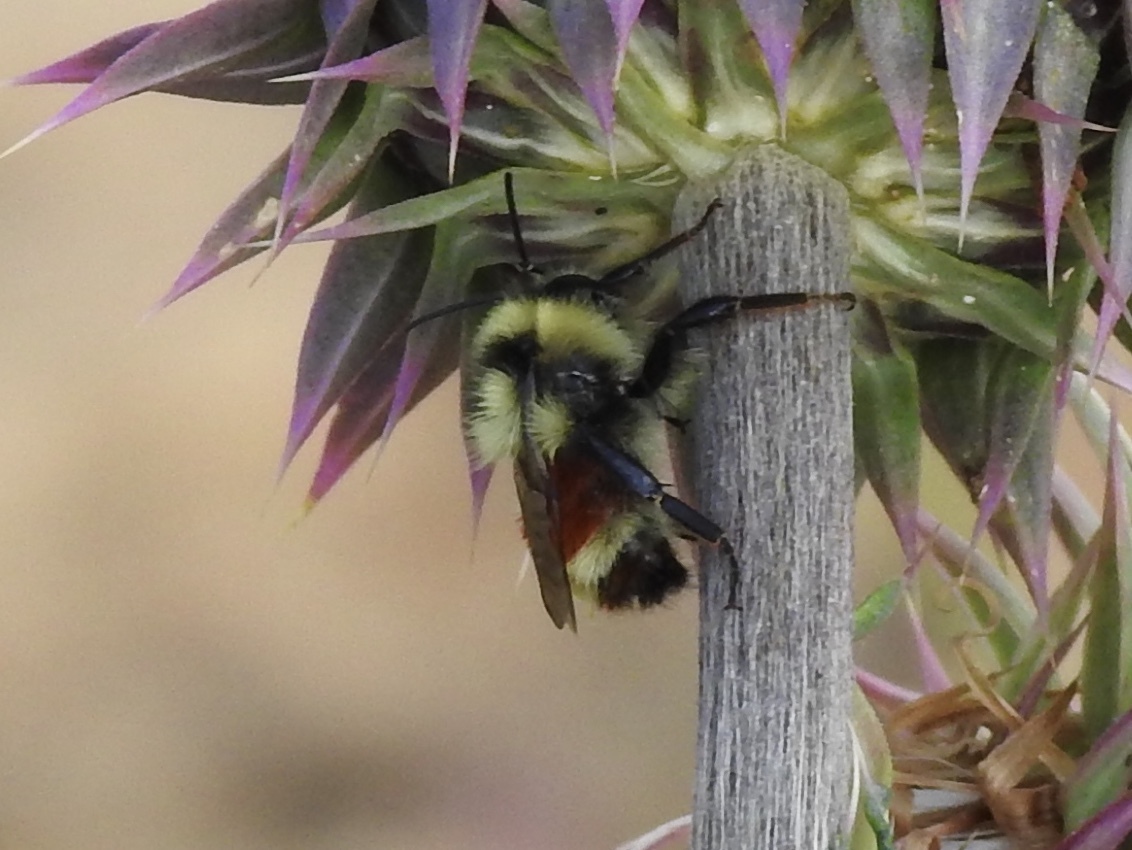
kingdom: Animalia
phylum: Arthropoda
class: Insecta
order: Hymenoptera
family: Apidae
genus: Bombus
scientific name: Bombus huntii
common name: Hunt bumble bee
